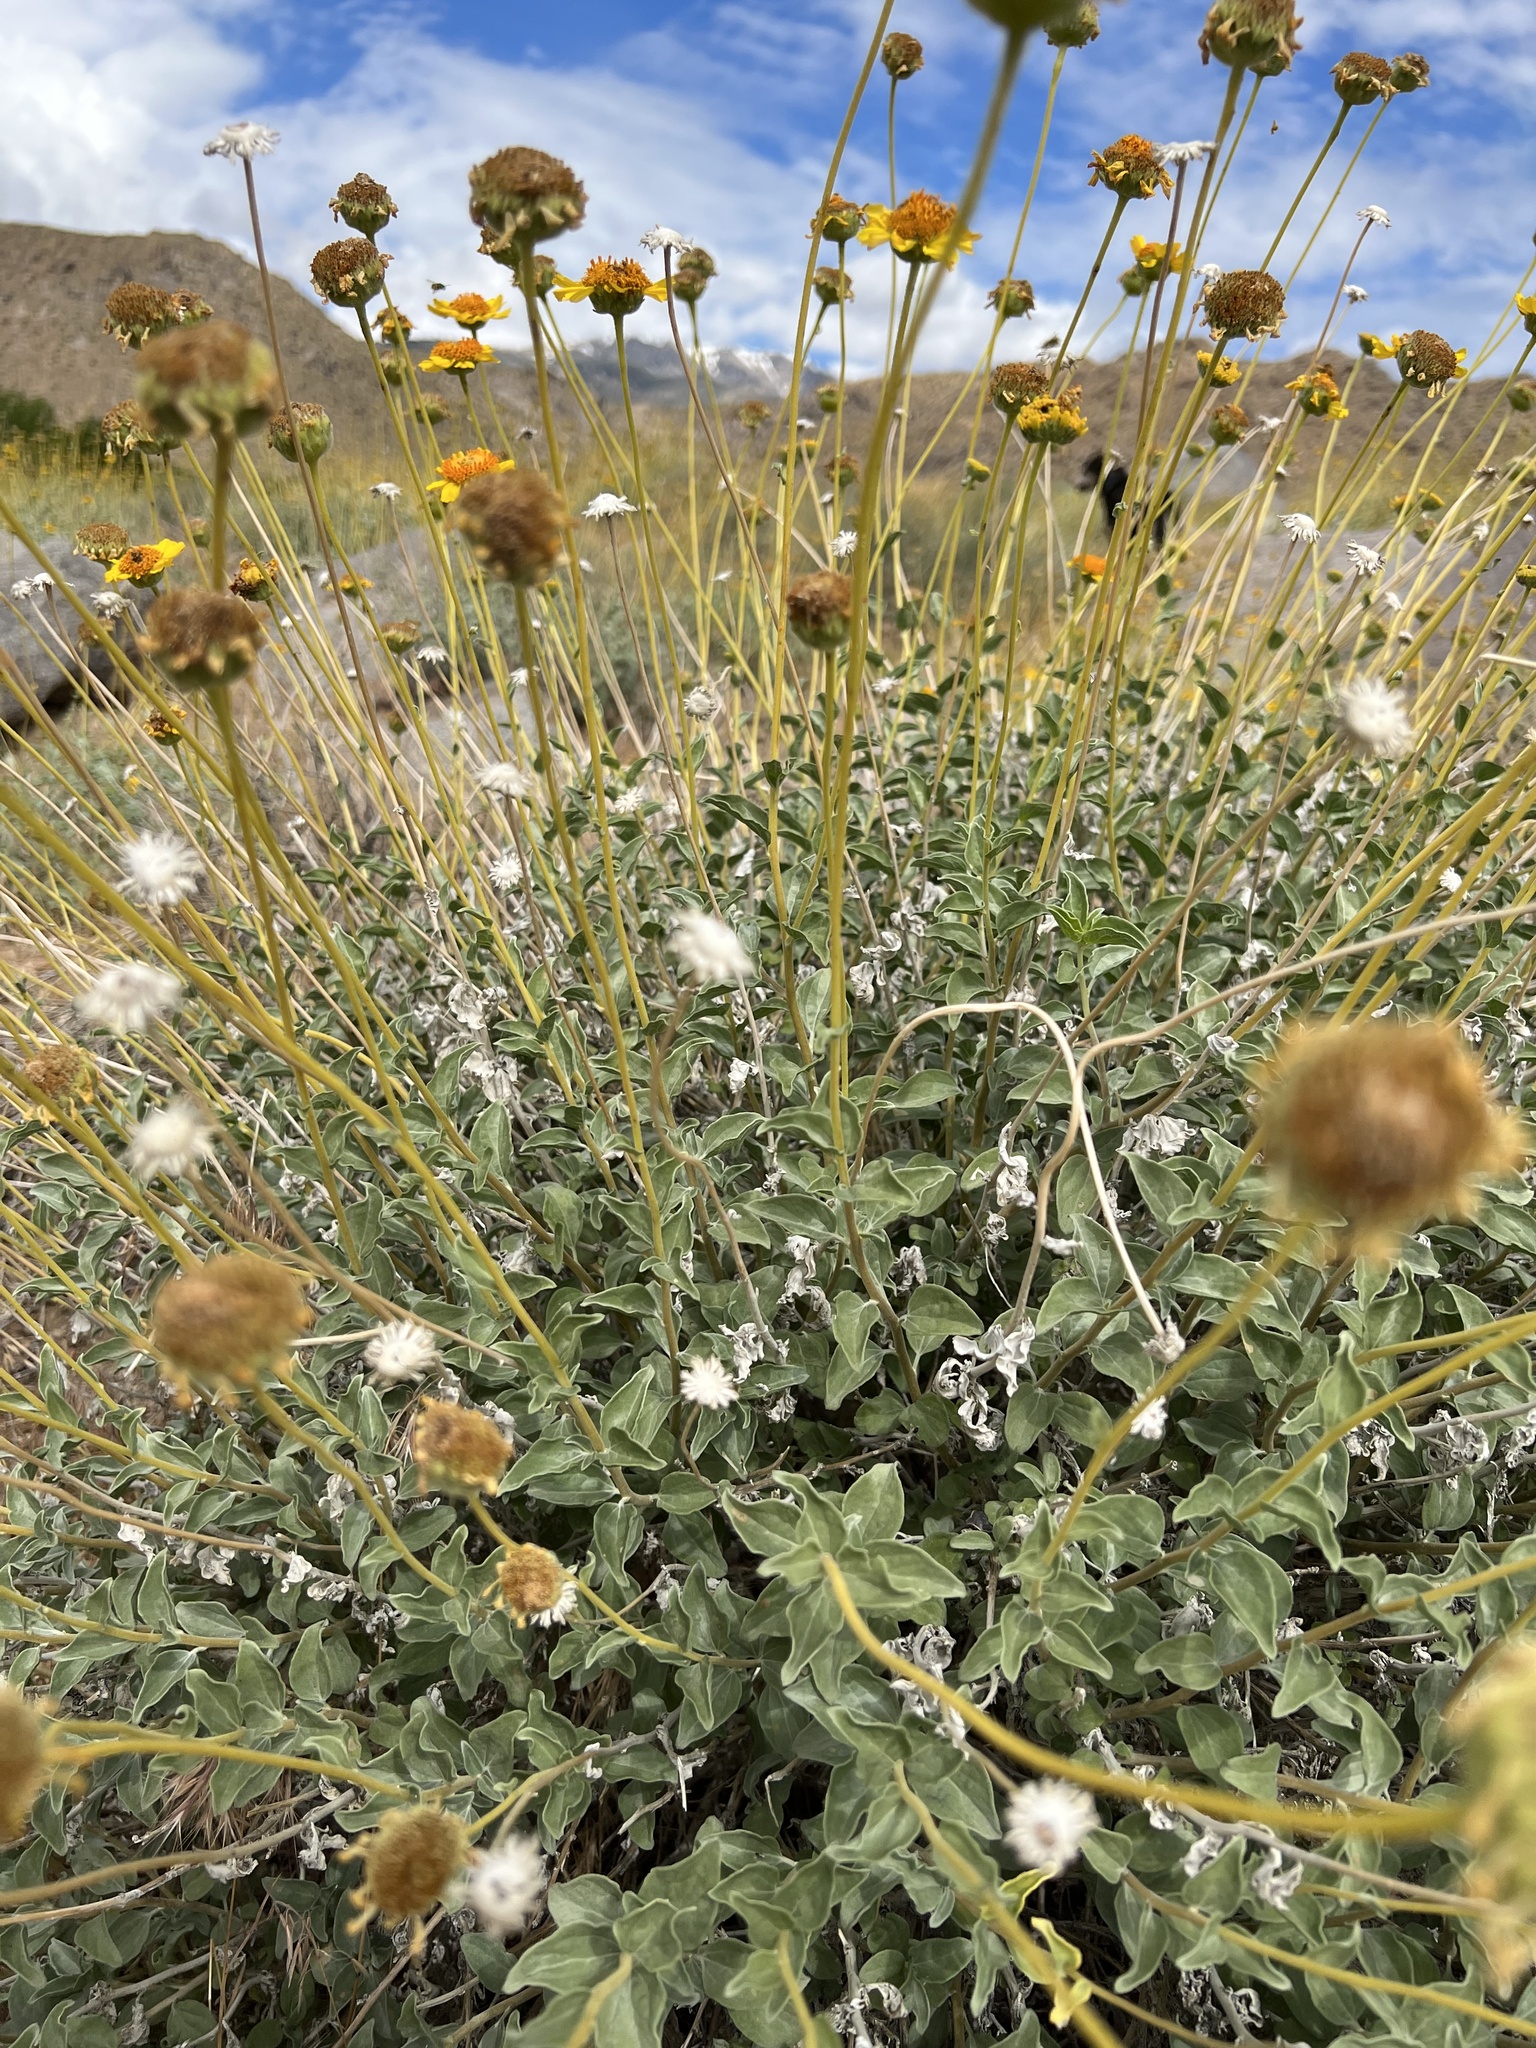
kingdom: Plantae
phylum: Tracheophyta
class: Magnoliopsida
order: Asterales
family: Asteraceae
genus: Encelia
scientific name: Encelia actoni
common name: Acton encelia
